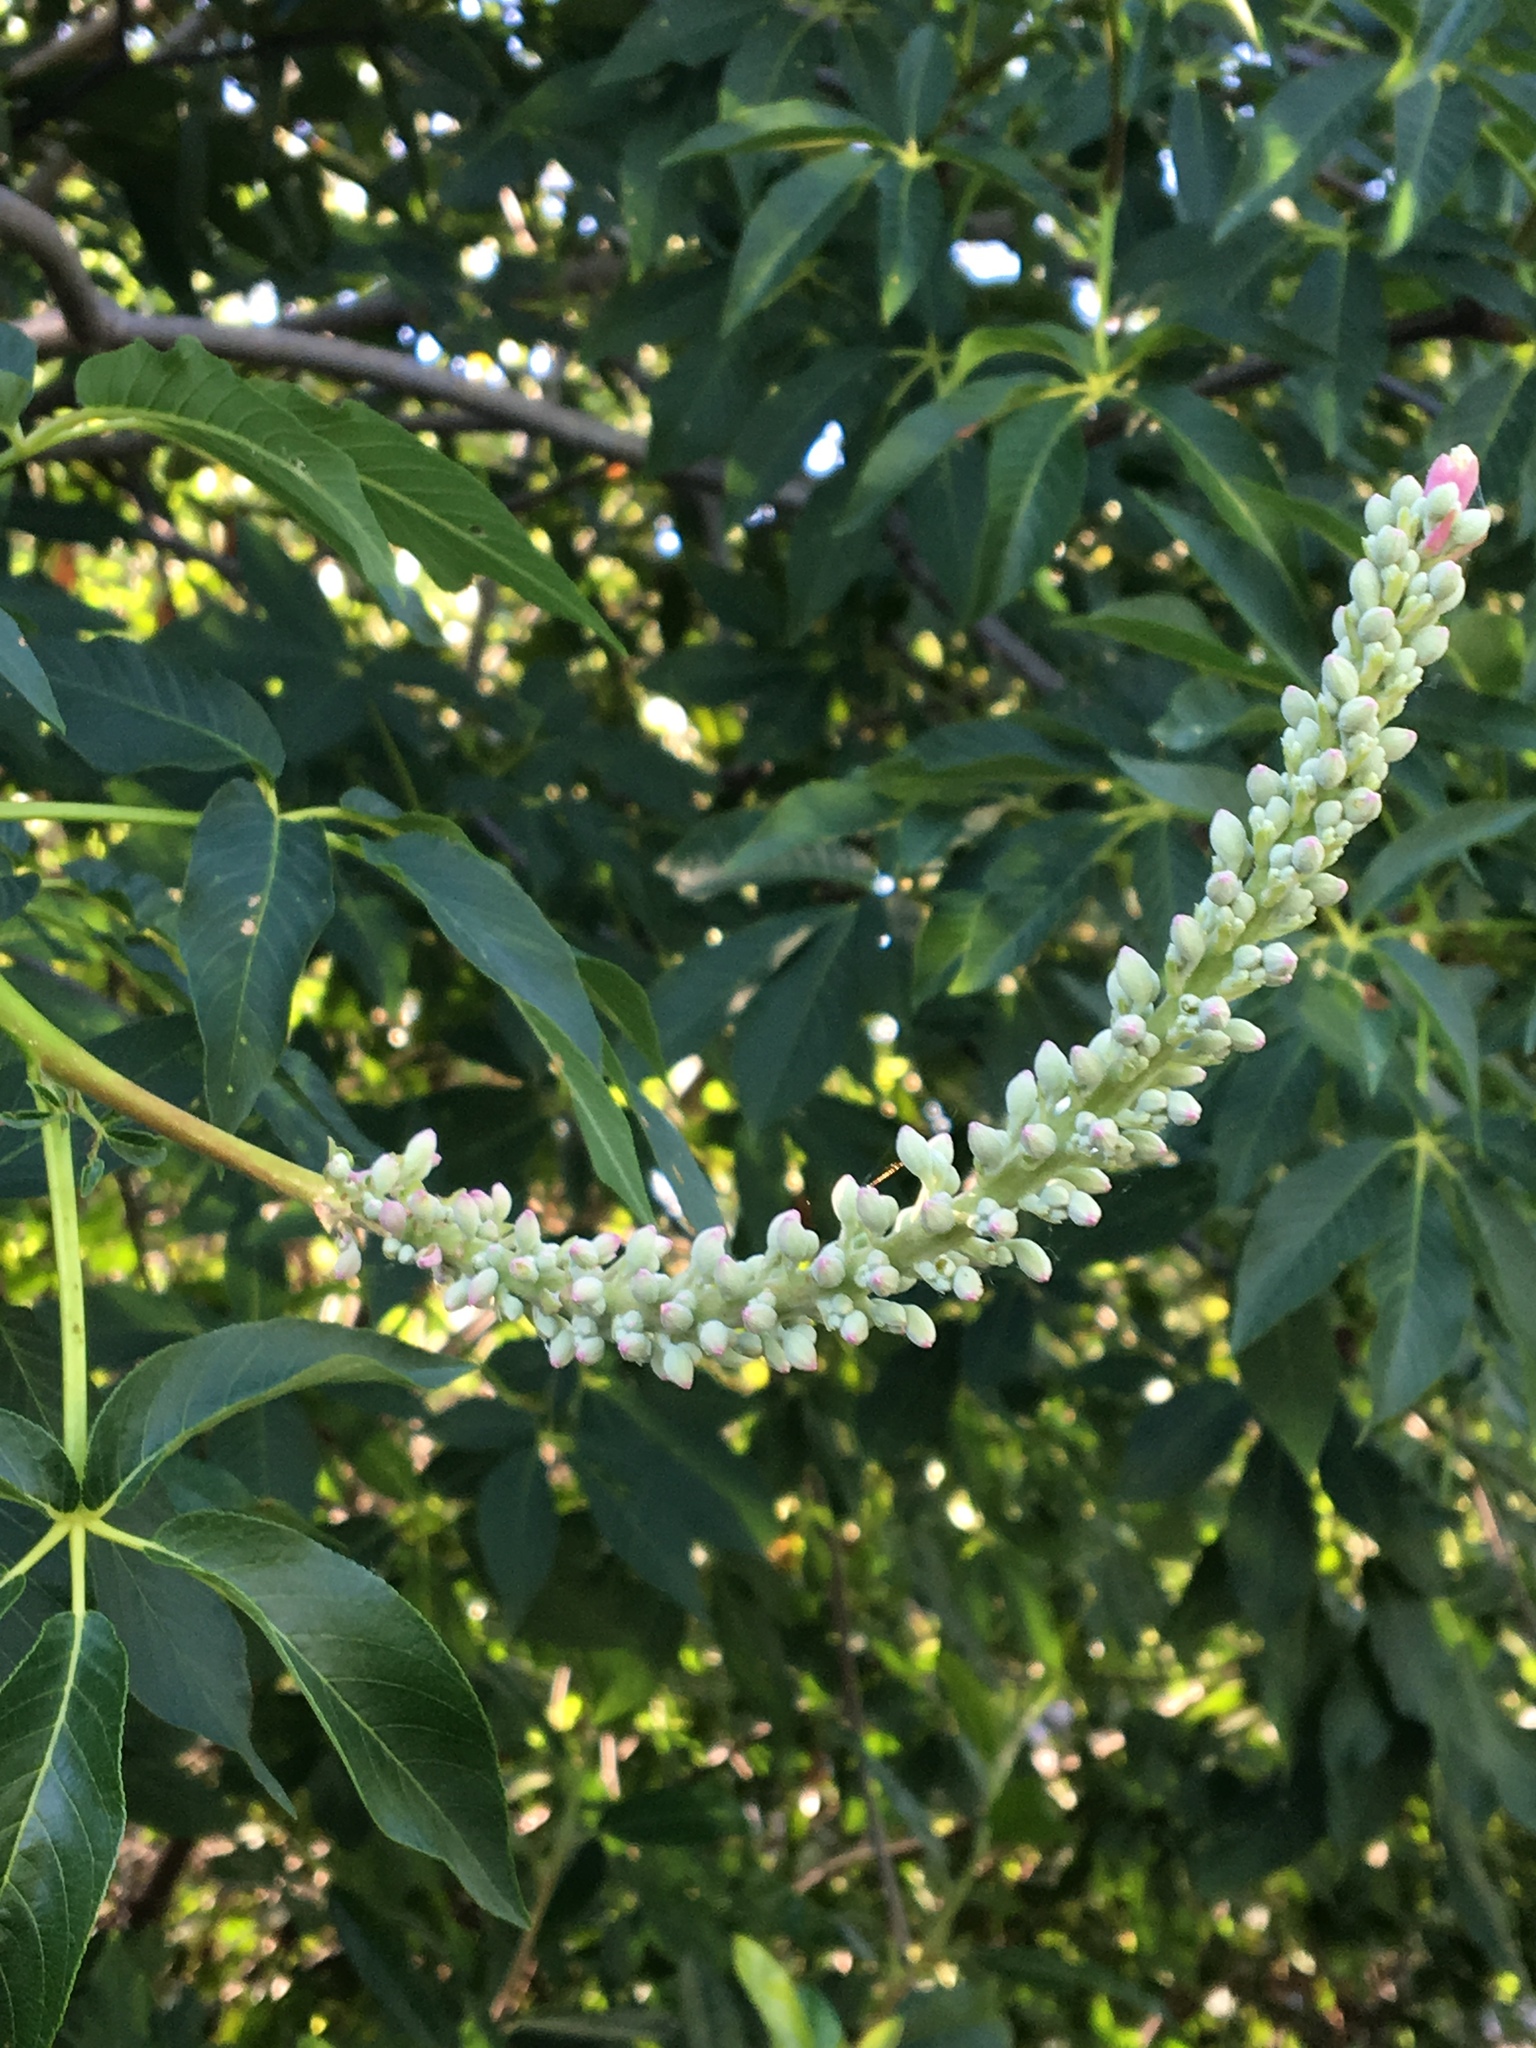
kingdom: Plantae
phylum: Tracheophyta
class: Magnoliopsida
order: Sapindales
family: Sapindaceae
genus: Aesculus
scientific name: Aesculus californica
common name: California buckeye
